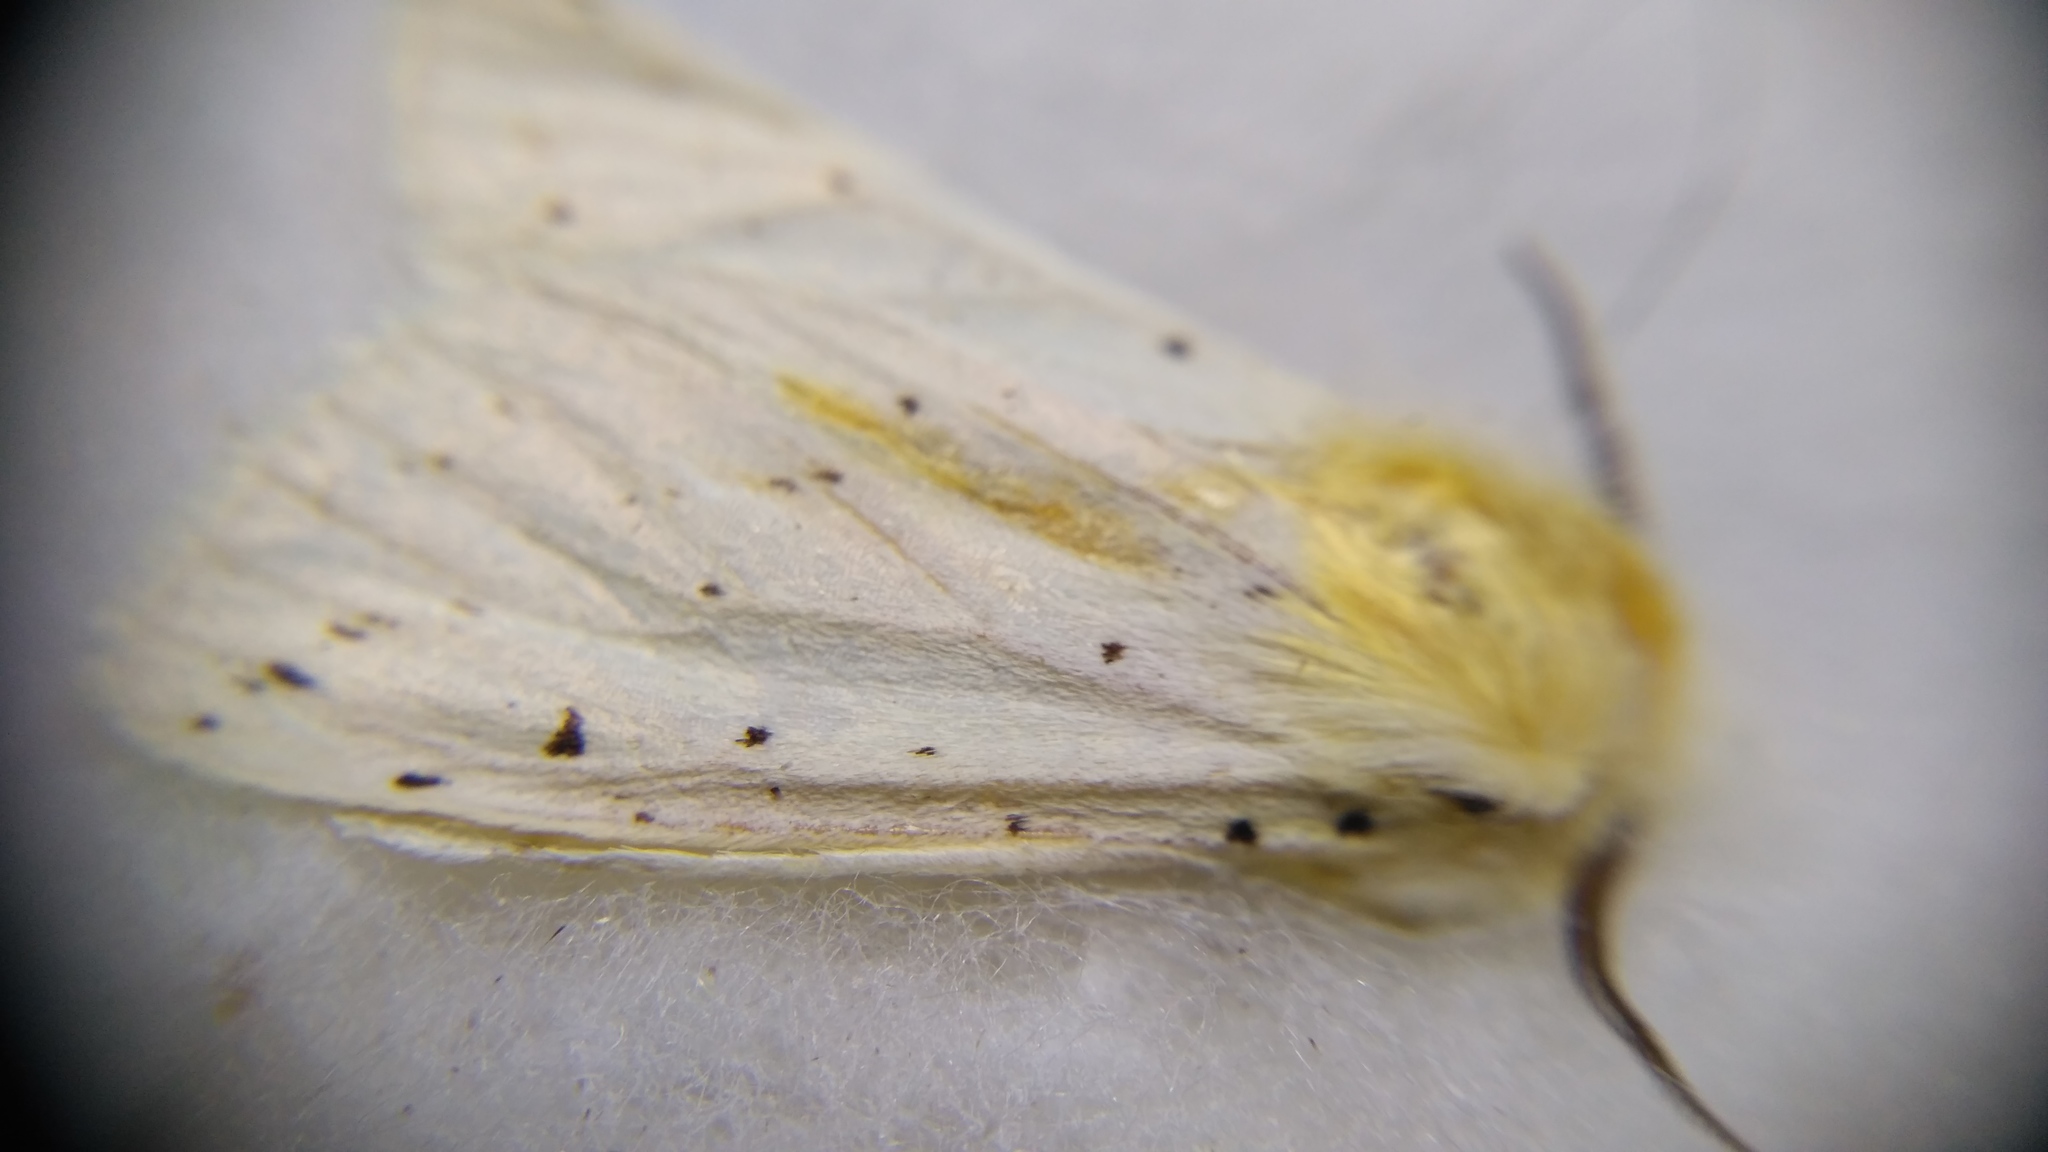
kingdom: Animalia
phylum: Arthropoda
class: Insecta
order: Lepidoptera
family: Erebidae
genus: Spilosoma
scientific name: Spilosoma lubricipeda
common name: White ermine
